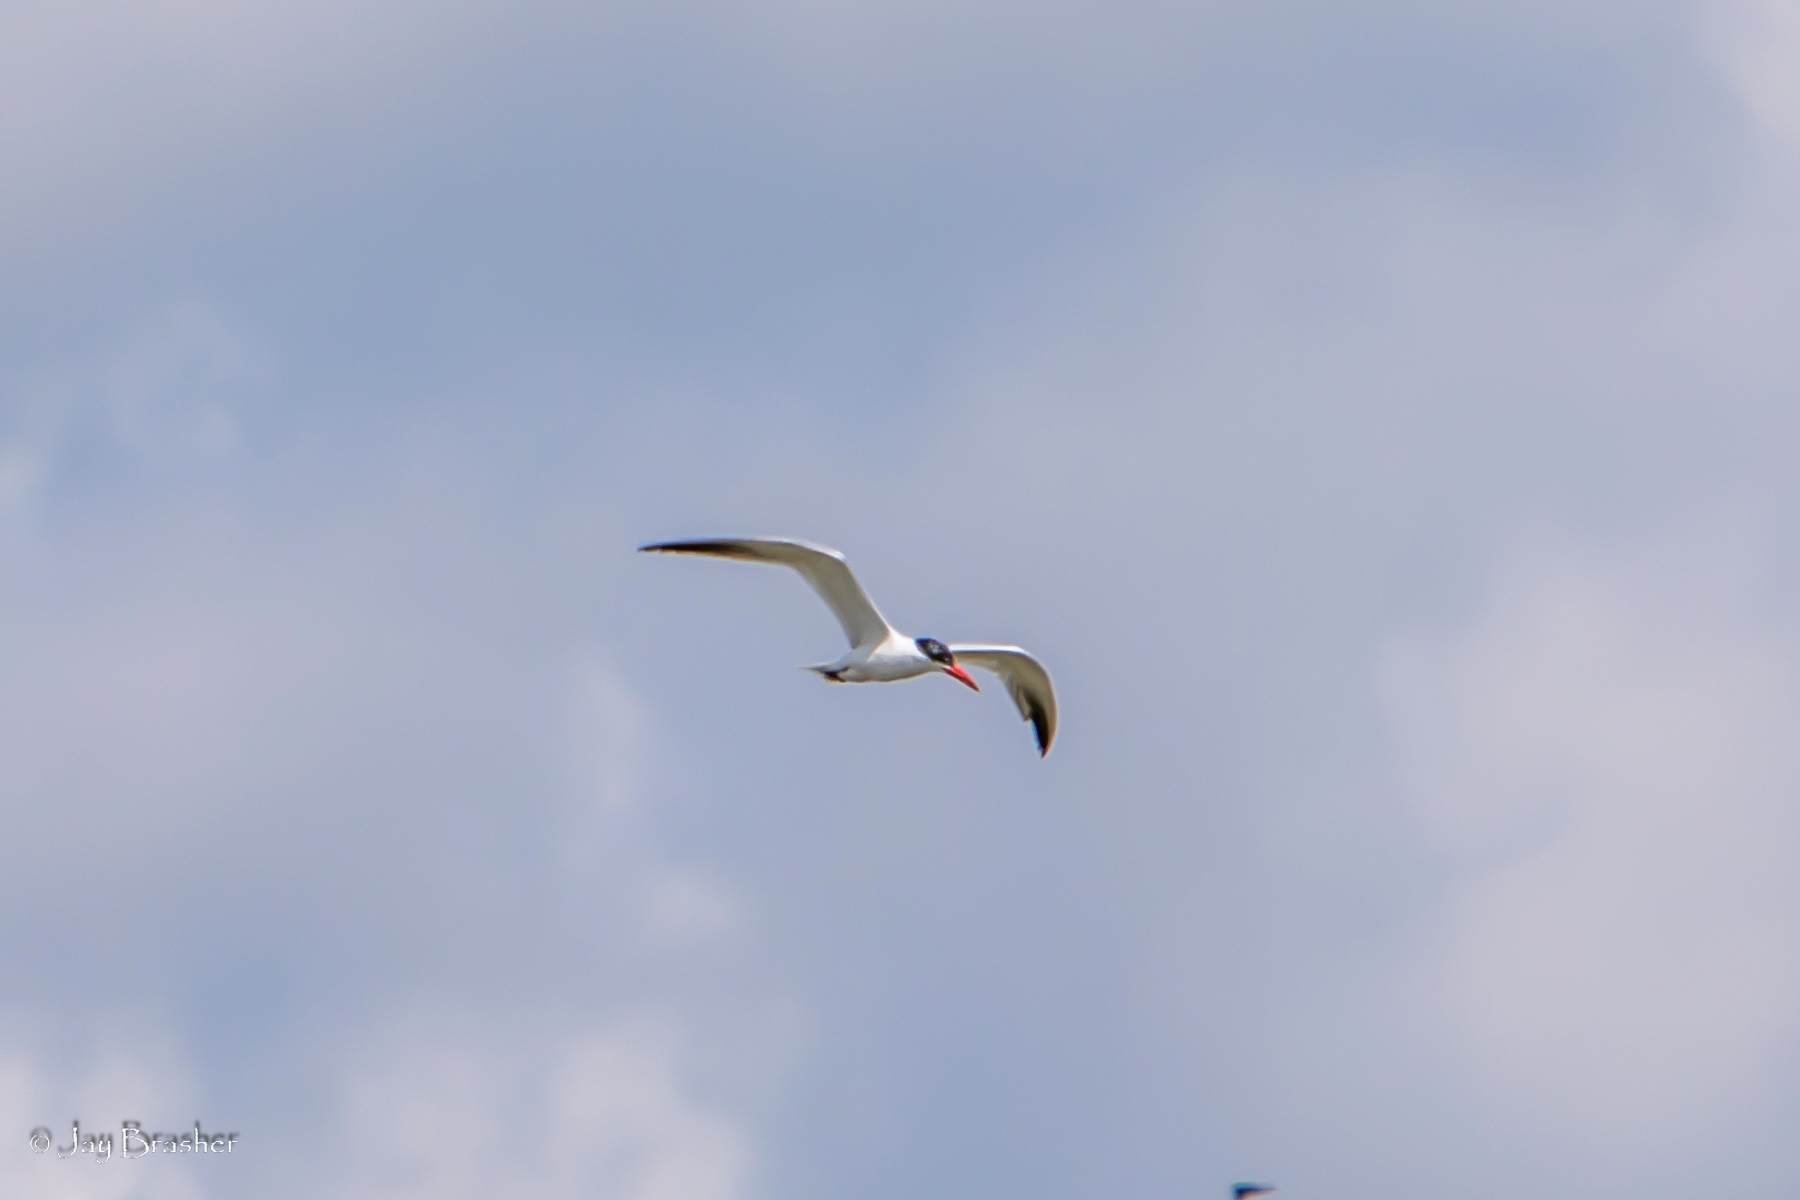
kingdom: Animalia
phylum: Chordata
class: Aves
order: Charadriiformes
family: Laridae
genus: Hydroprogne
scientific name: Hydroprogne caspia
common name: Caspian tern
